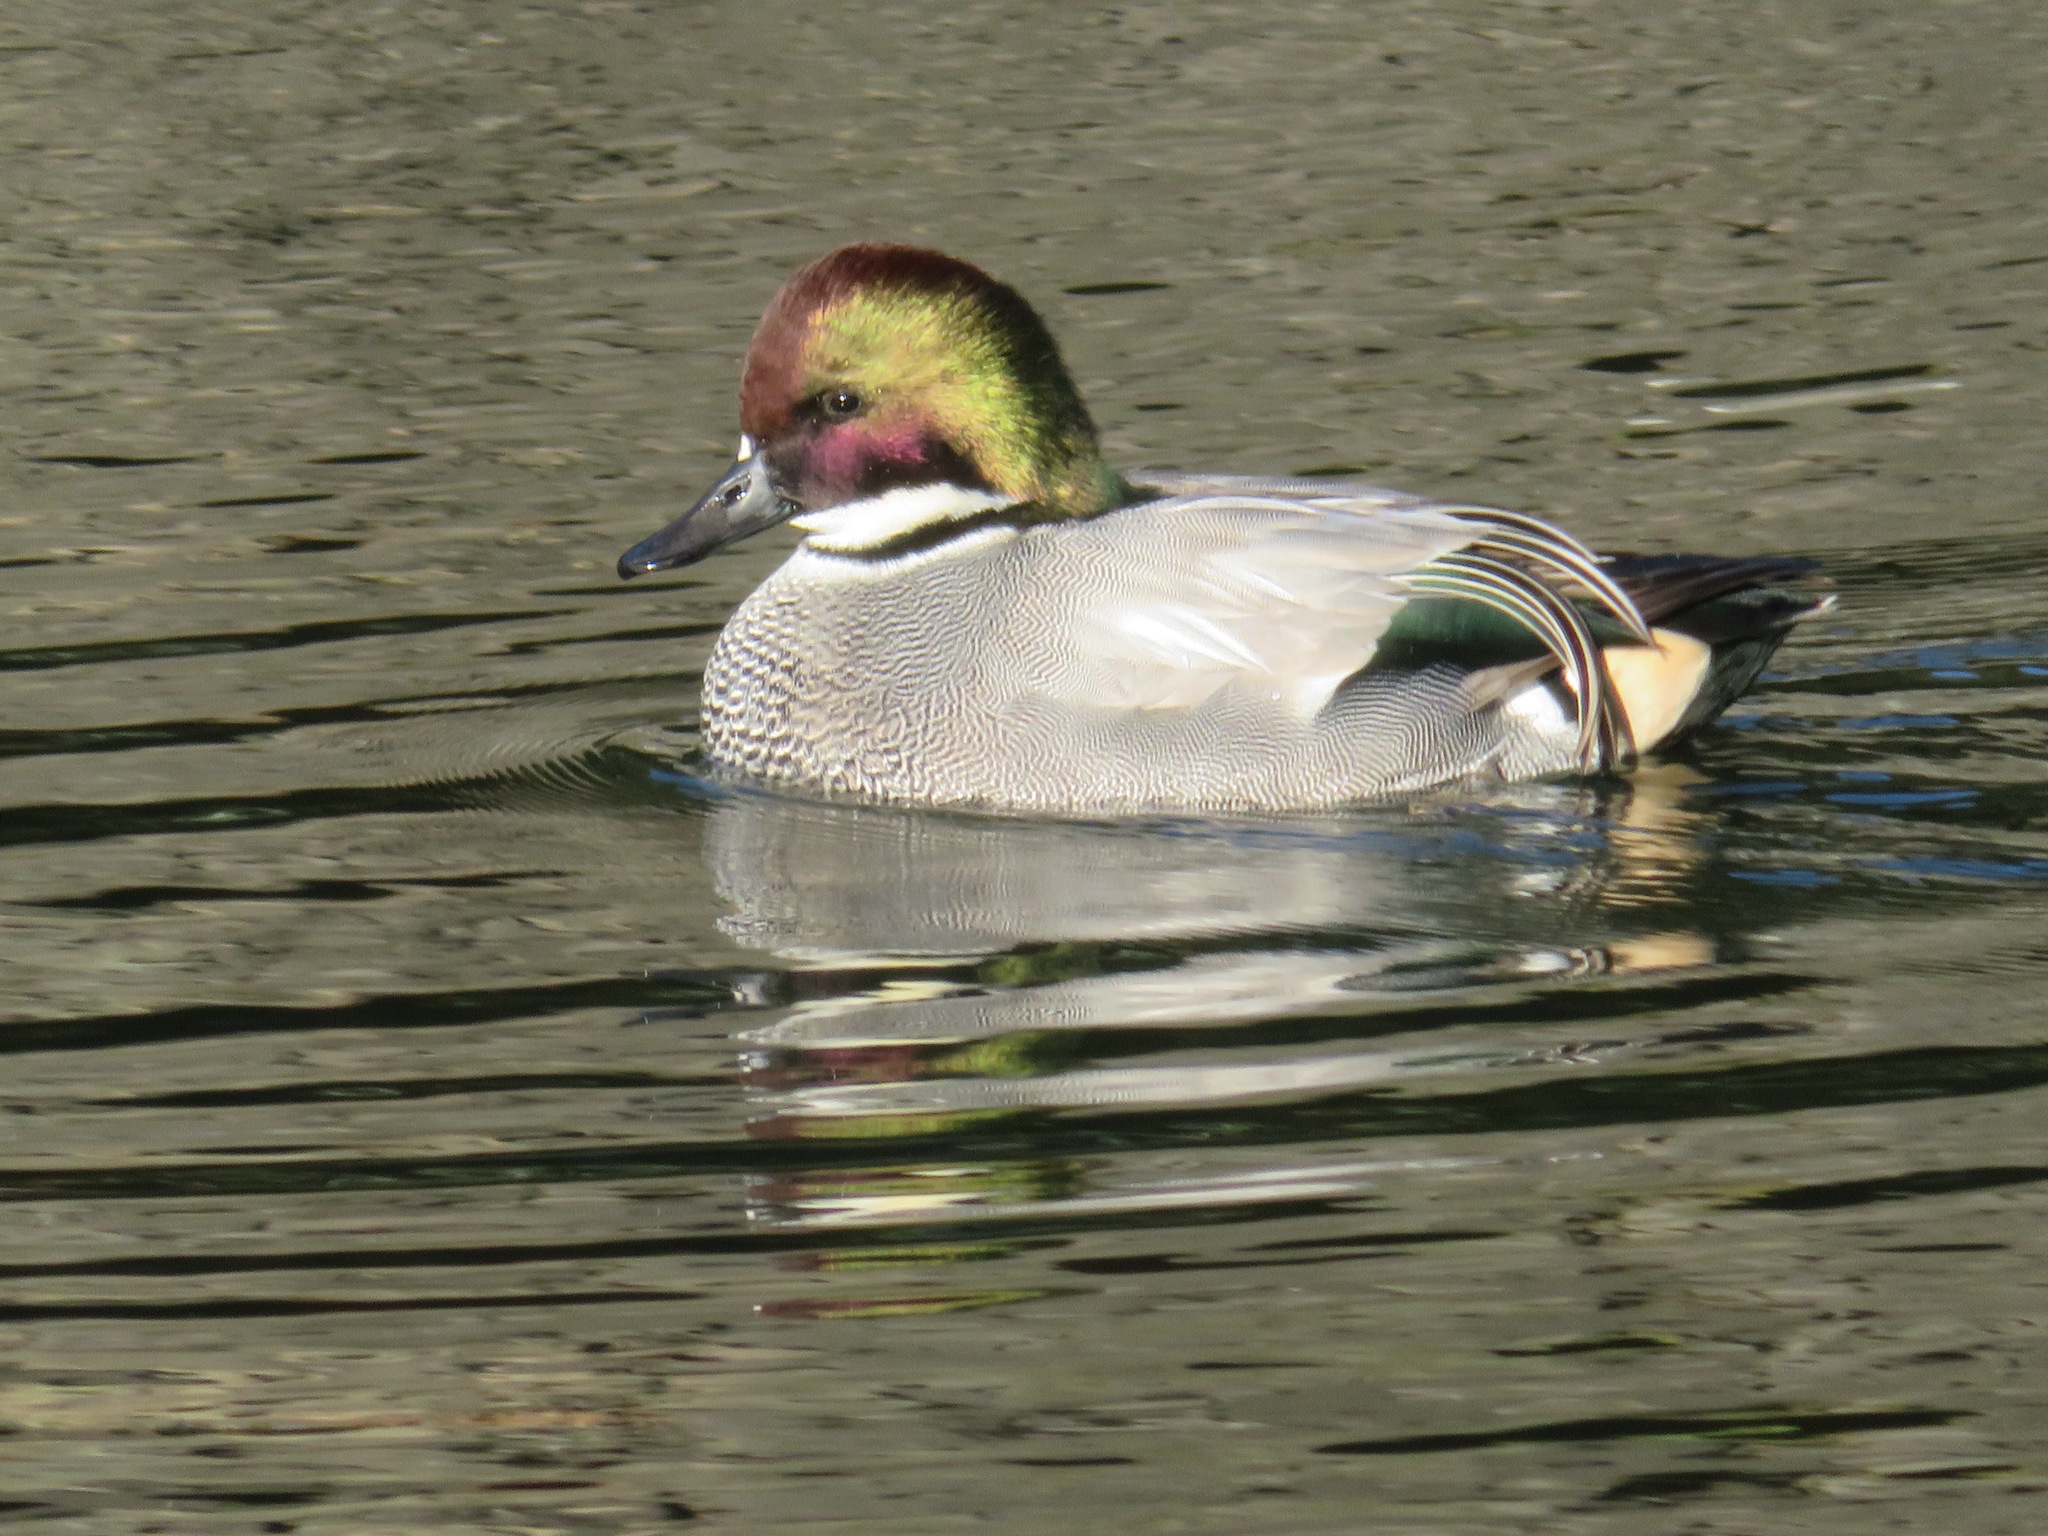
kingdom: Animalia
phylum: Chordata
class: Aves
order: Anseriformes
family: Anatidae
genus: Mareca
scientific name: Mareca falcata
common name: Falcated duck
